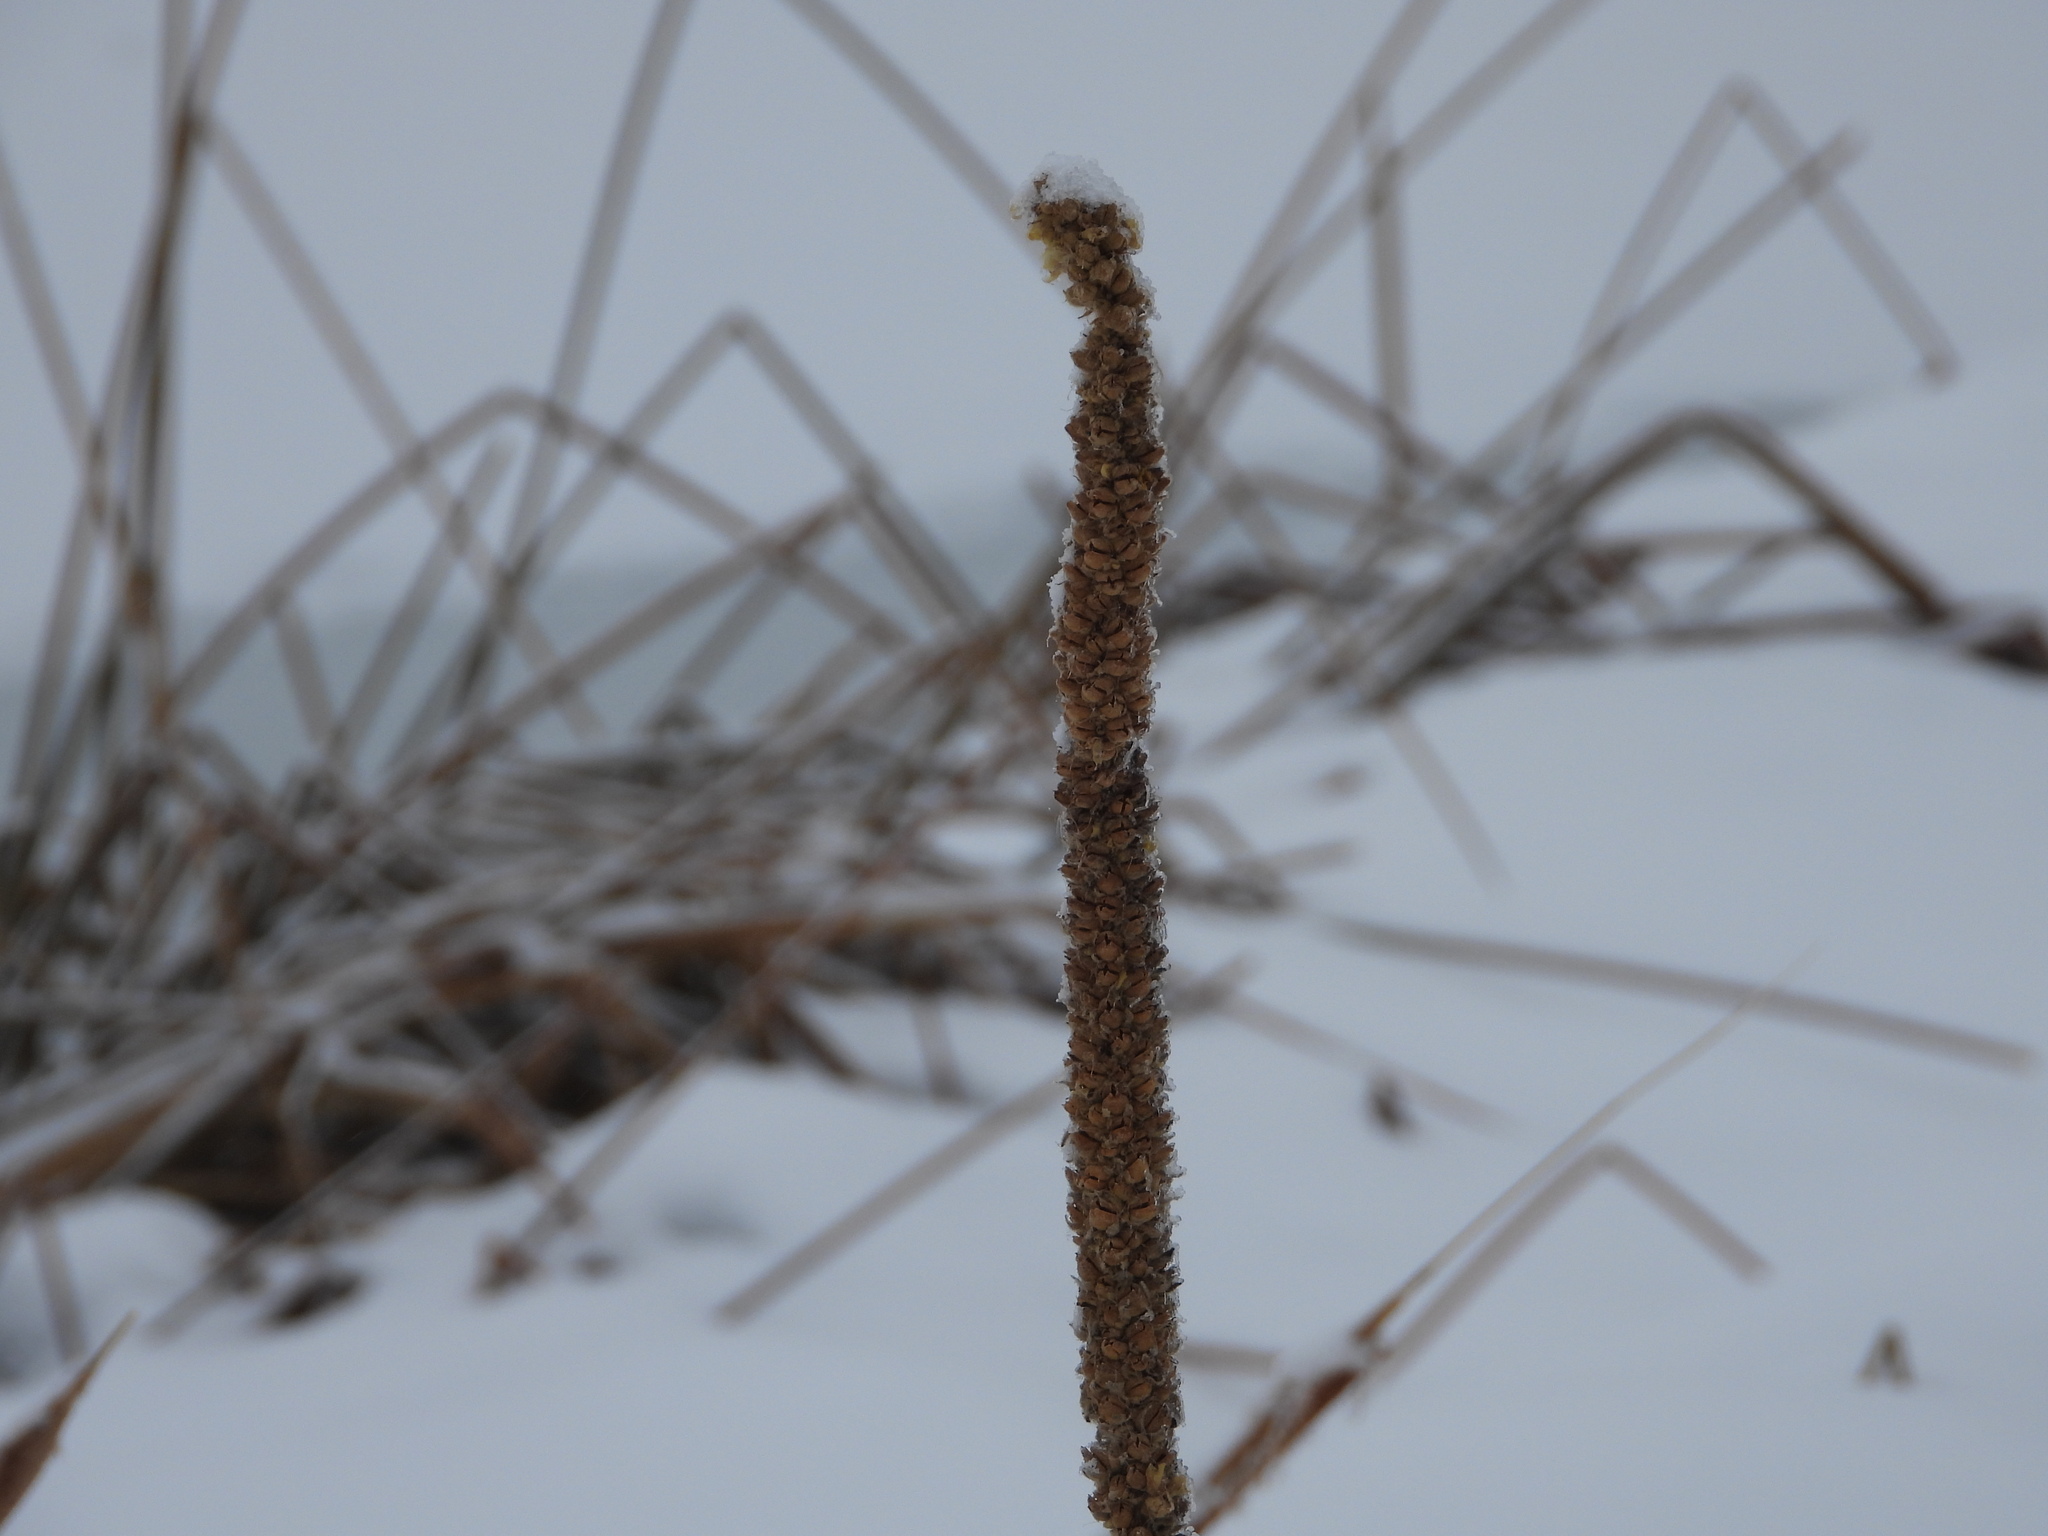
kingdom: Plantae
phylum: Tracheophyta
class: Magnoliopsida
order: Lamiales
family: Scrophulariaceae
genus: Verbascum
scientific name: Verbascum thapsus
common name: Common mullein
